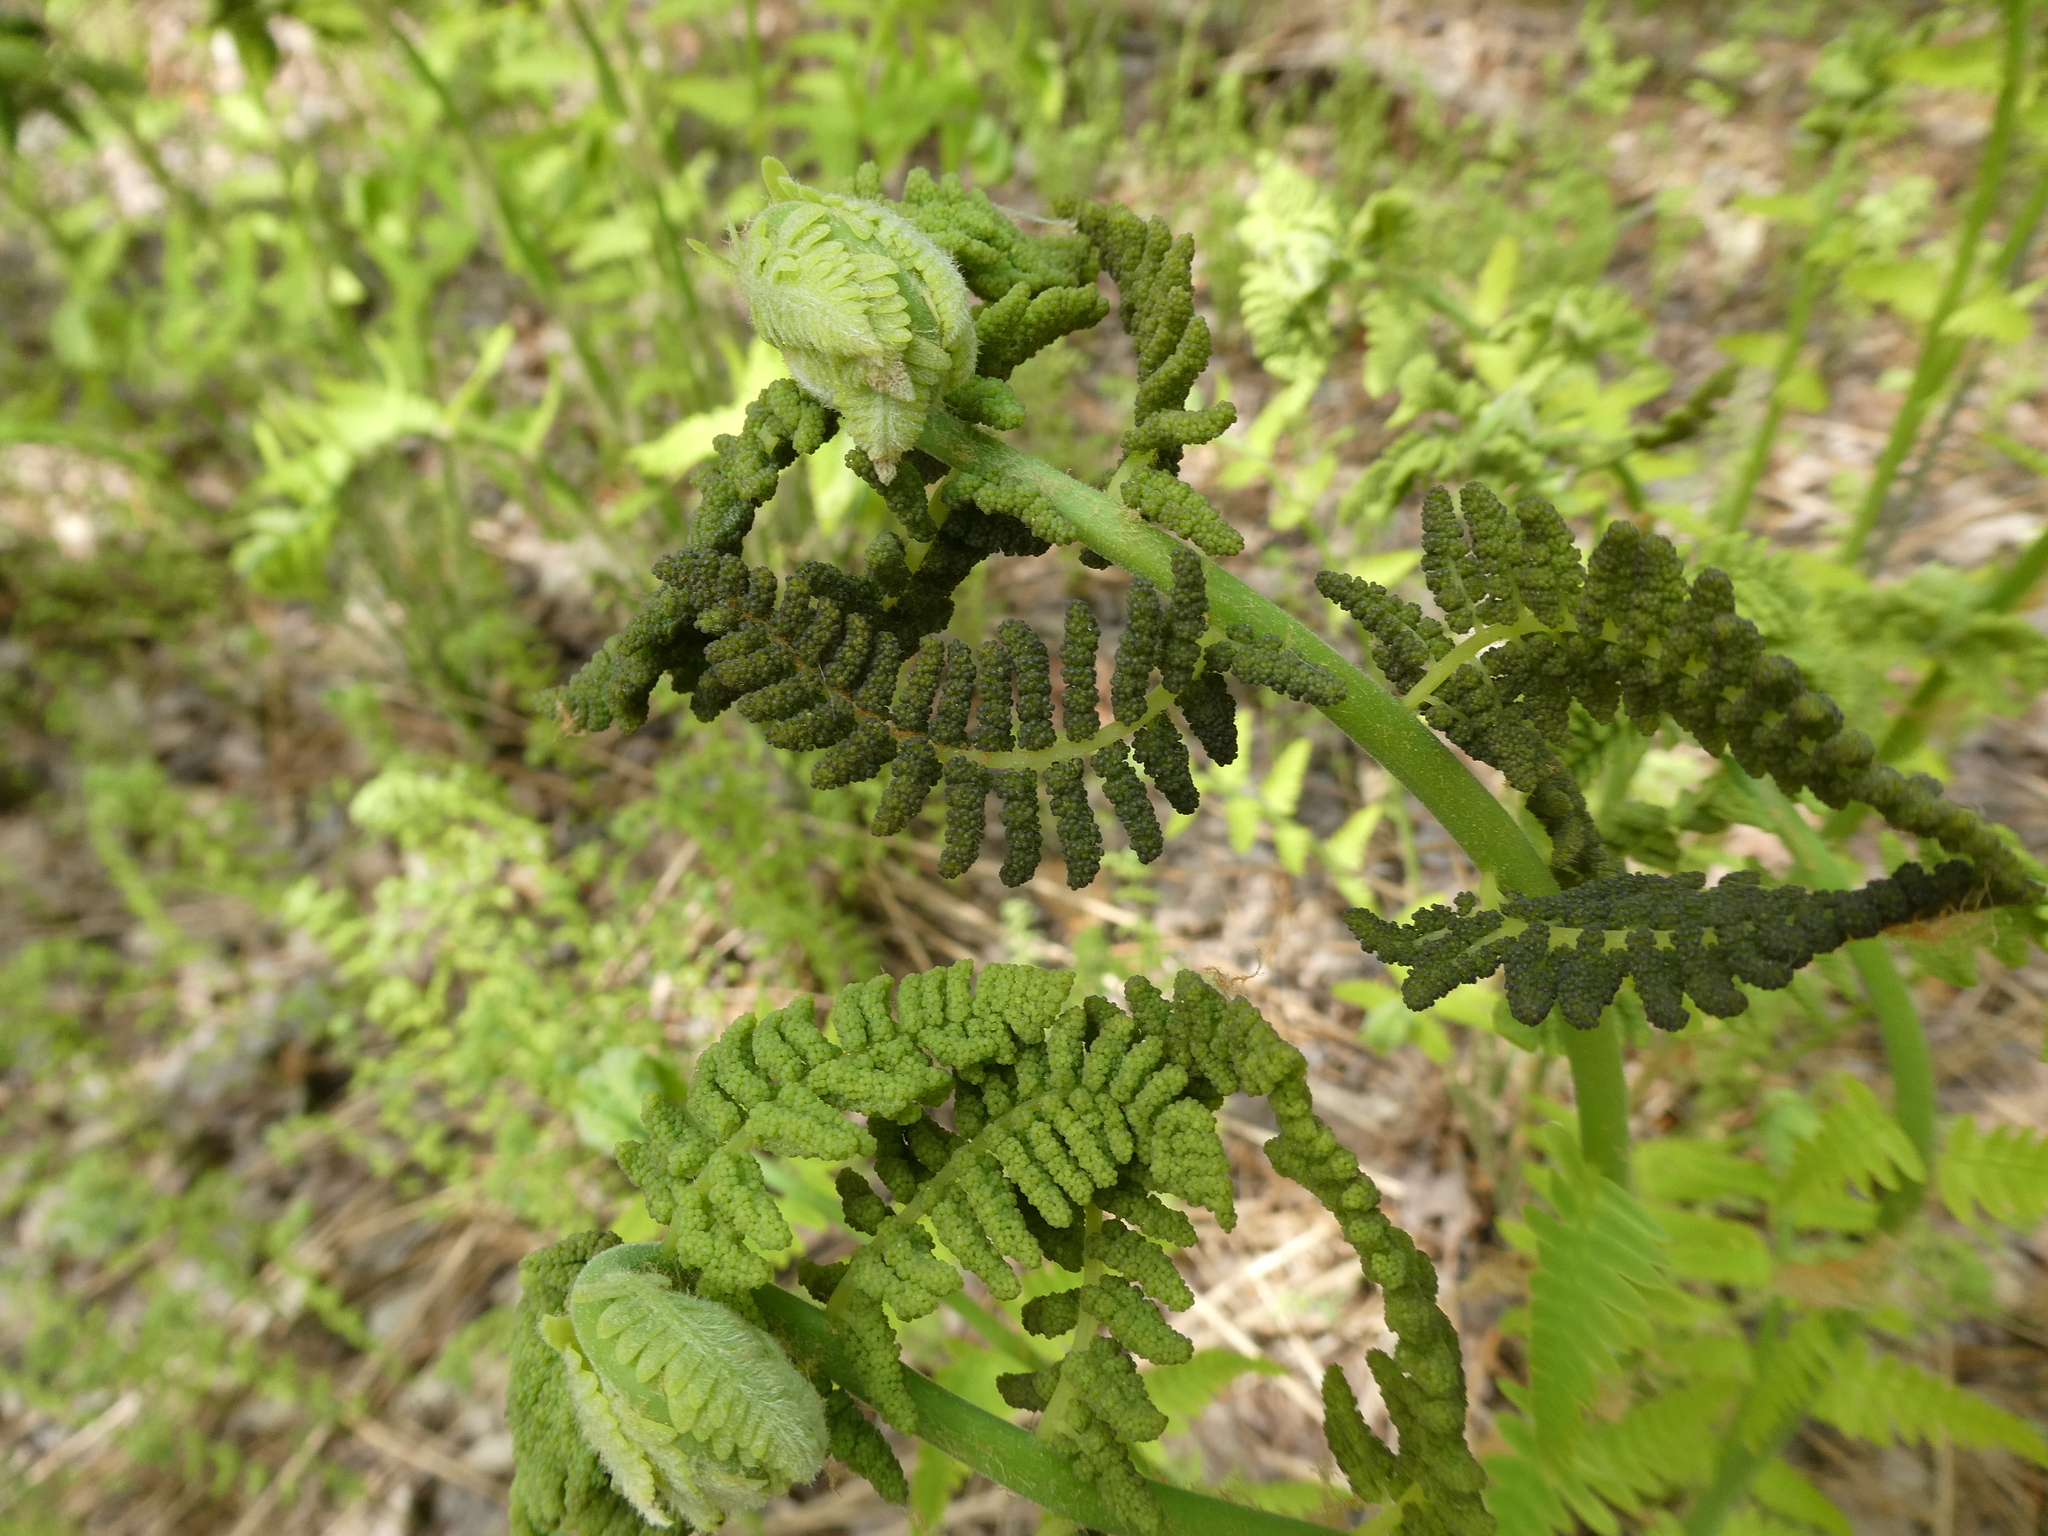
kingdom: Plantae
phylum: Tracheophyta
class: Polypodiopsida
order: Osmundales
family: Osmundaceae
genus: Claytosmunda
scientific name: Claytosmunda claytoniana
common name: Clayton's fern
